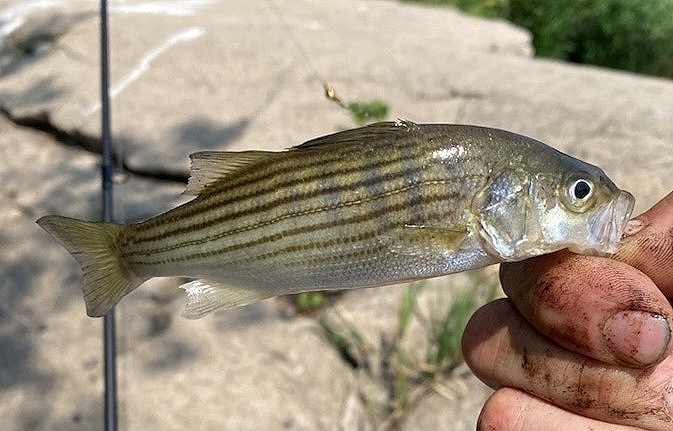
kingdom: Animalia
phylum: Chordata
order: Perciformes
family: Moronidae
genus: Morone
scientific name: Morone saxatilis
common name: Striped bass
